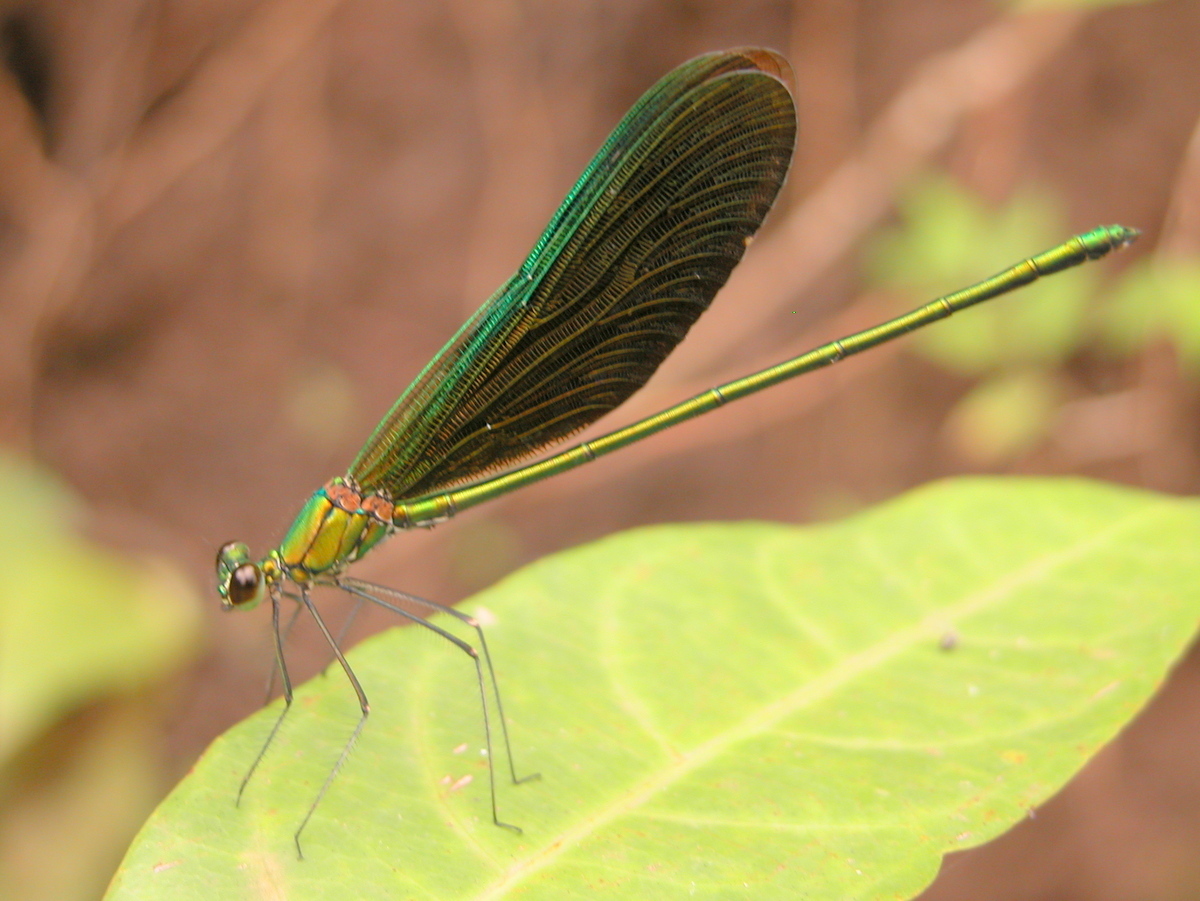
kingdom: Animalia
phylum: Arthropoda
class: Insecta
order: Odonata
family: Calopterygidae
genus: Neurobasis
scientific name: Neurobasis chinensis
